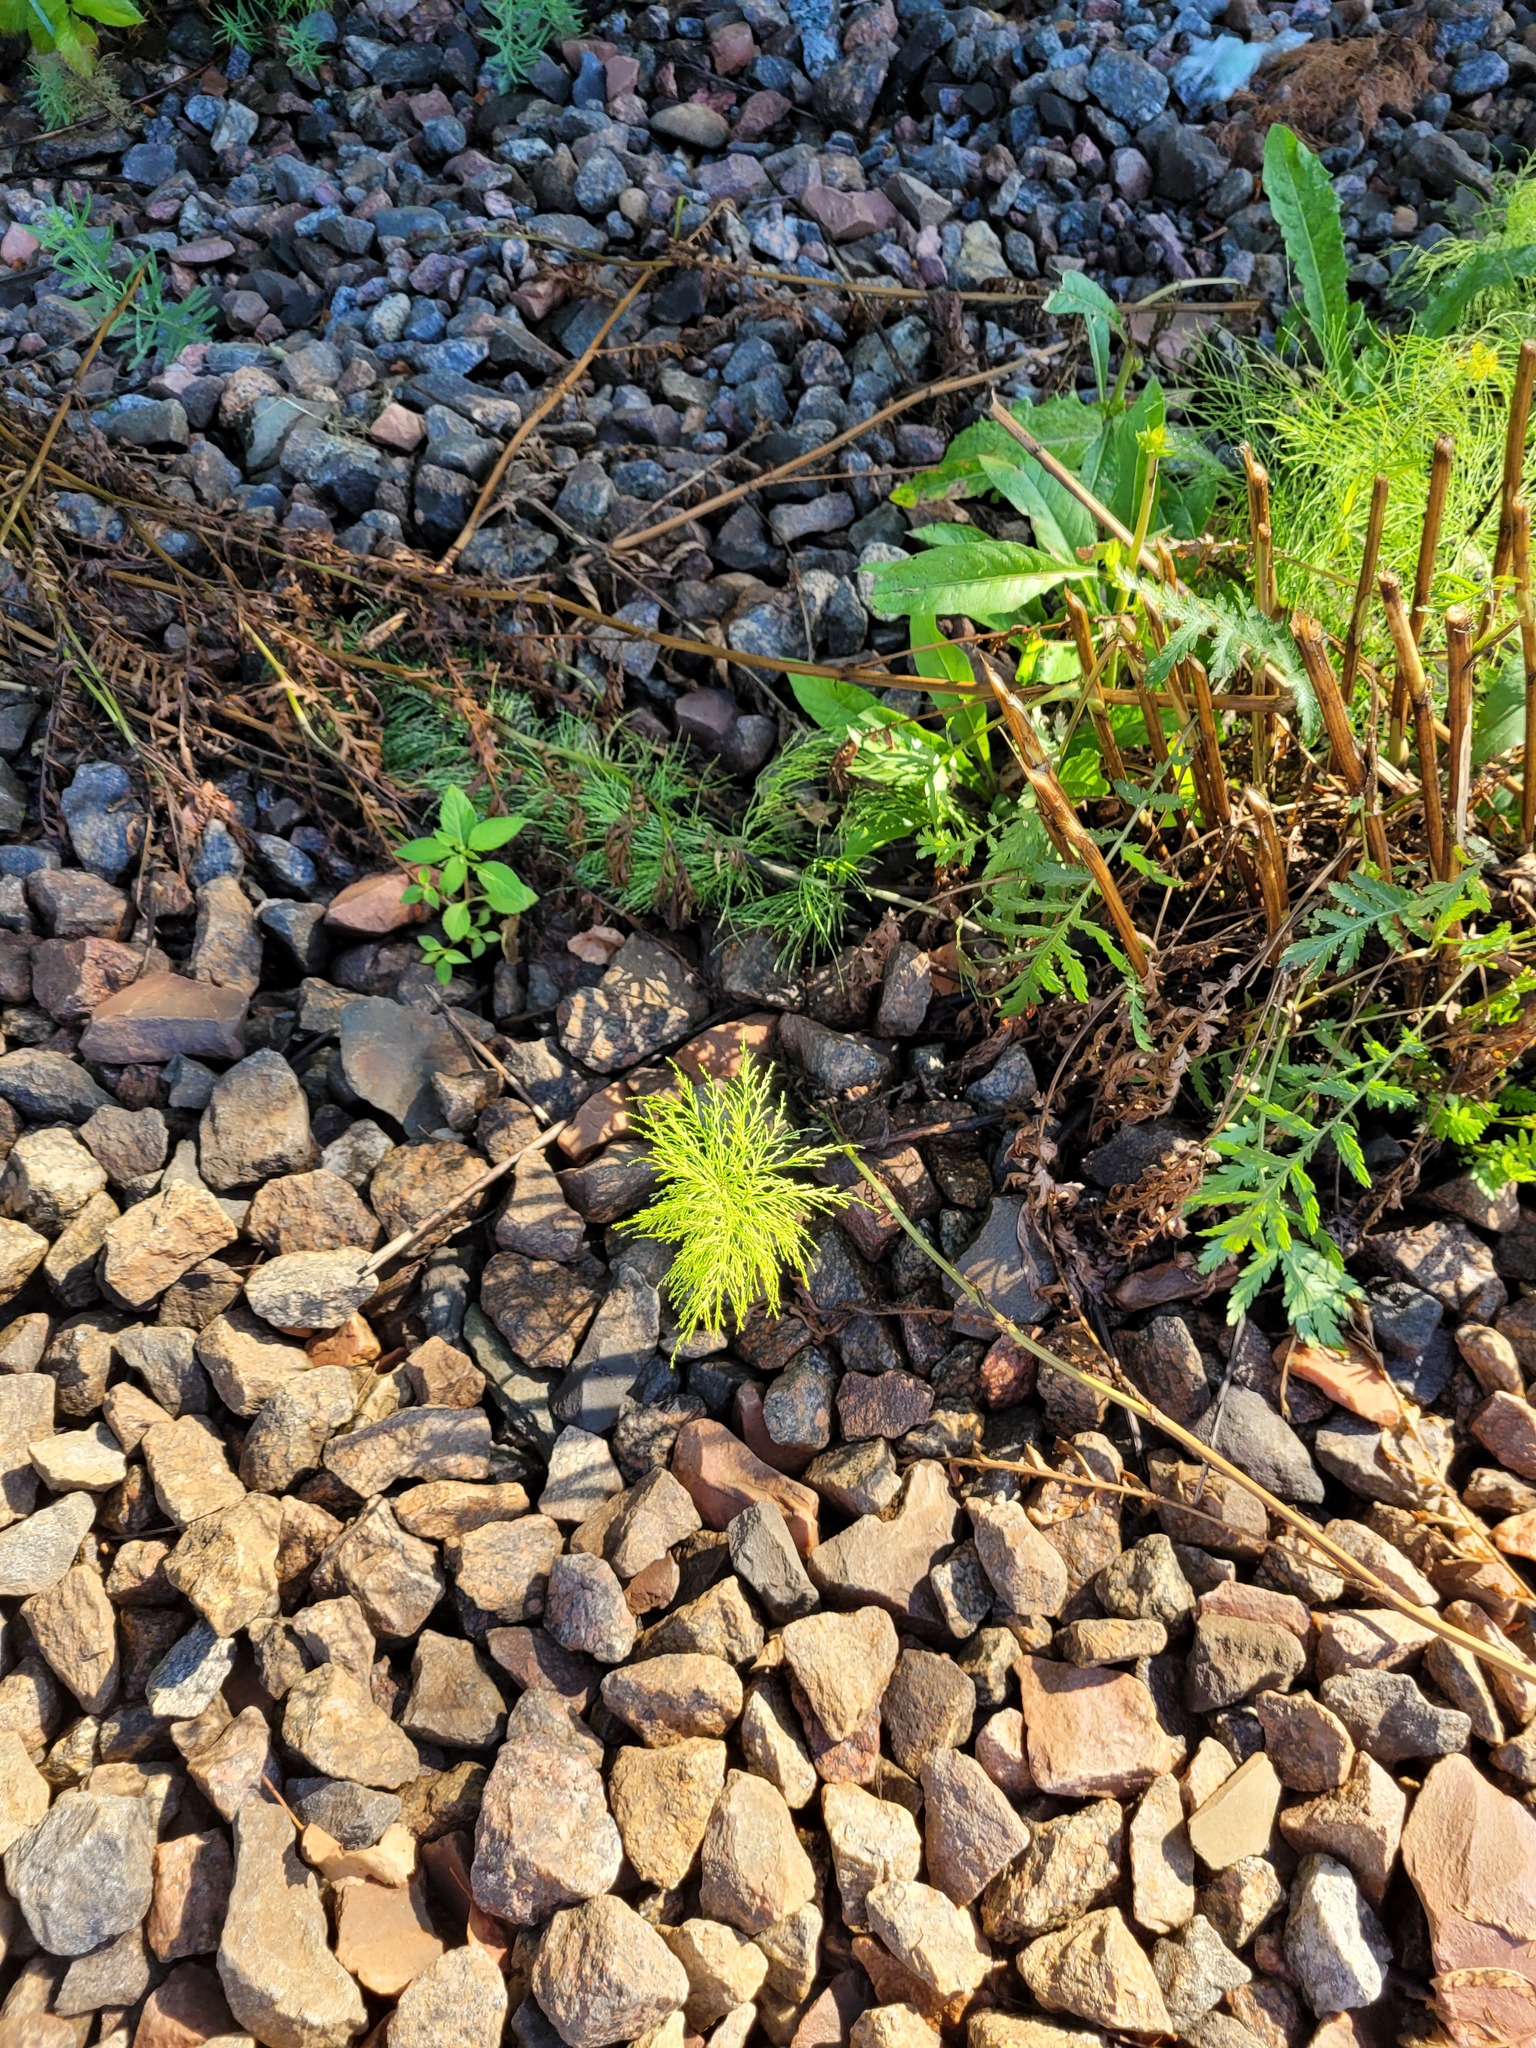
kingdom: Plantae
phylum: Tracheophyta
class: Polypodiopsida
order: Equisetales
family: Equisetaceae
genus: Equisetum
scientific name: Equisetum sylvaticum
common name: Wood horsetail
